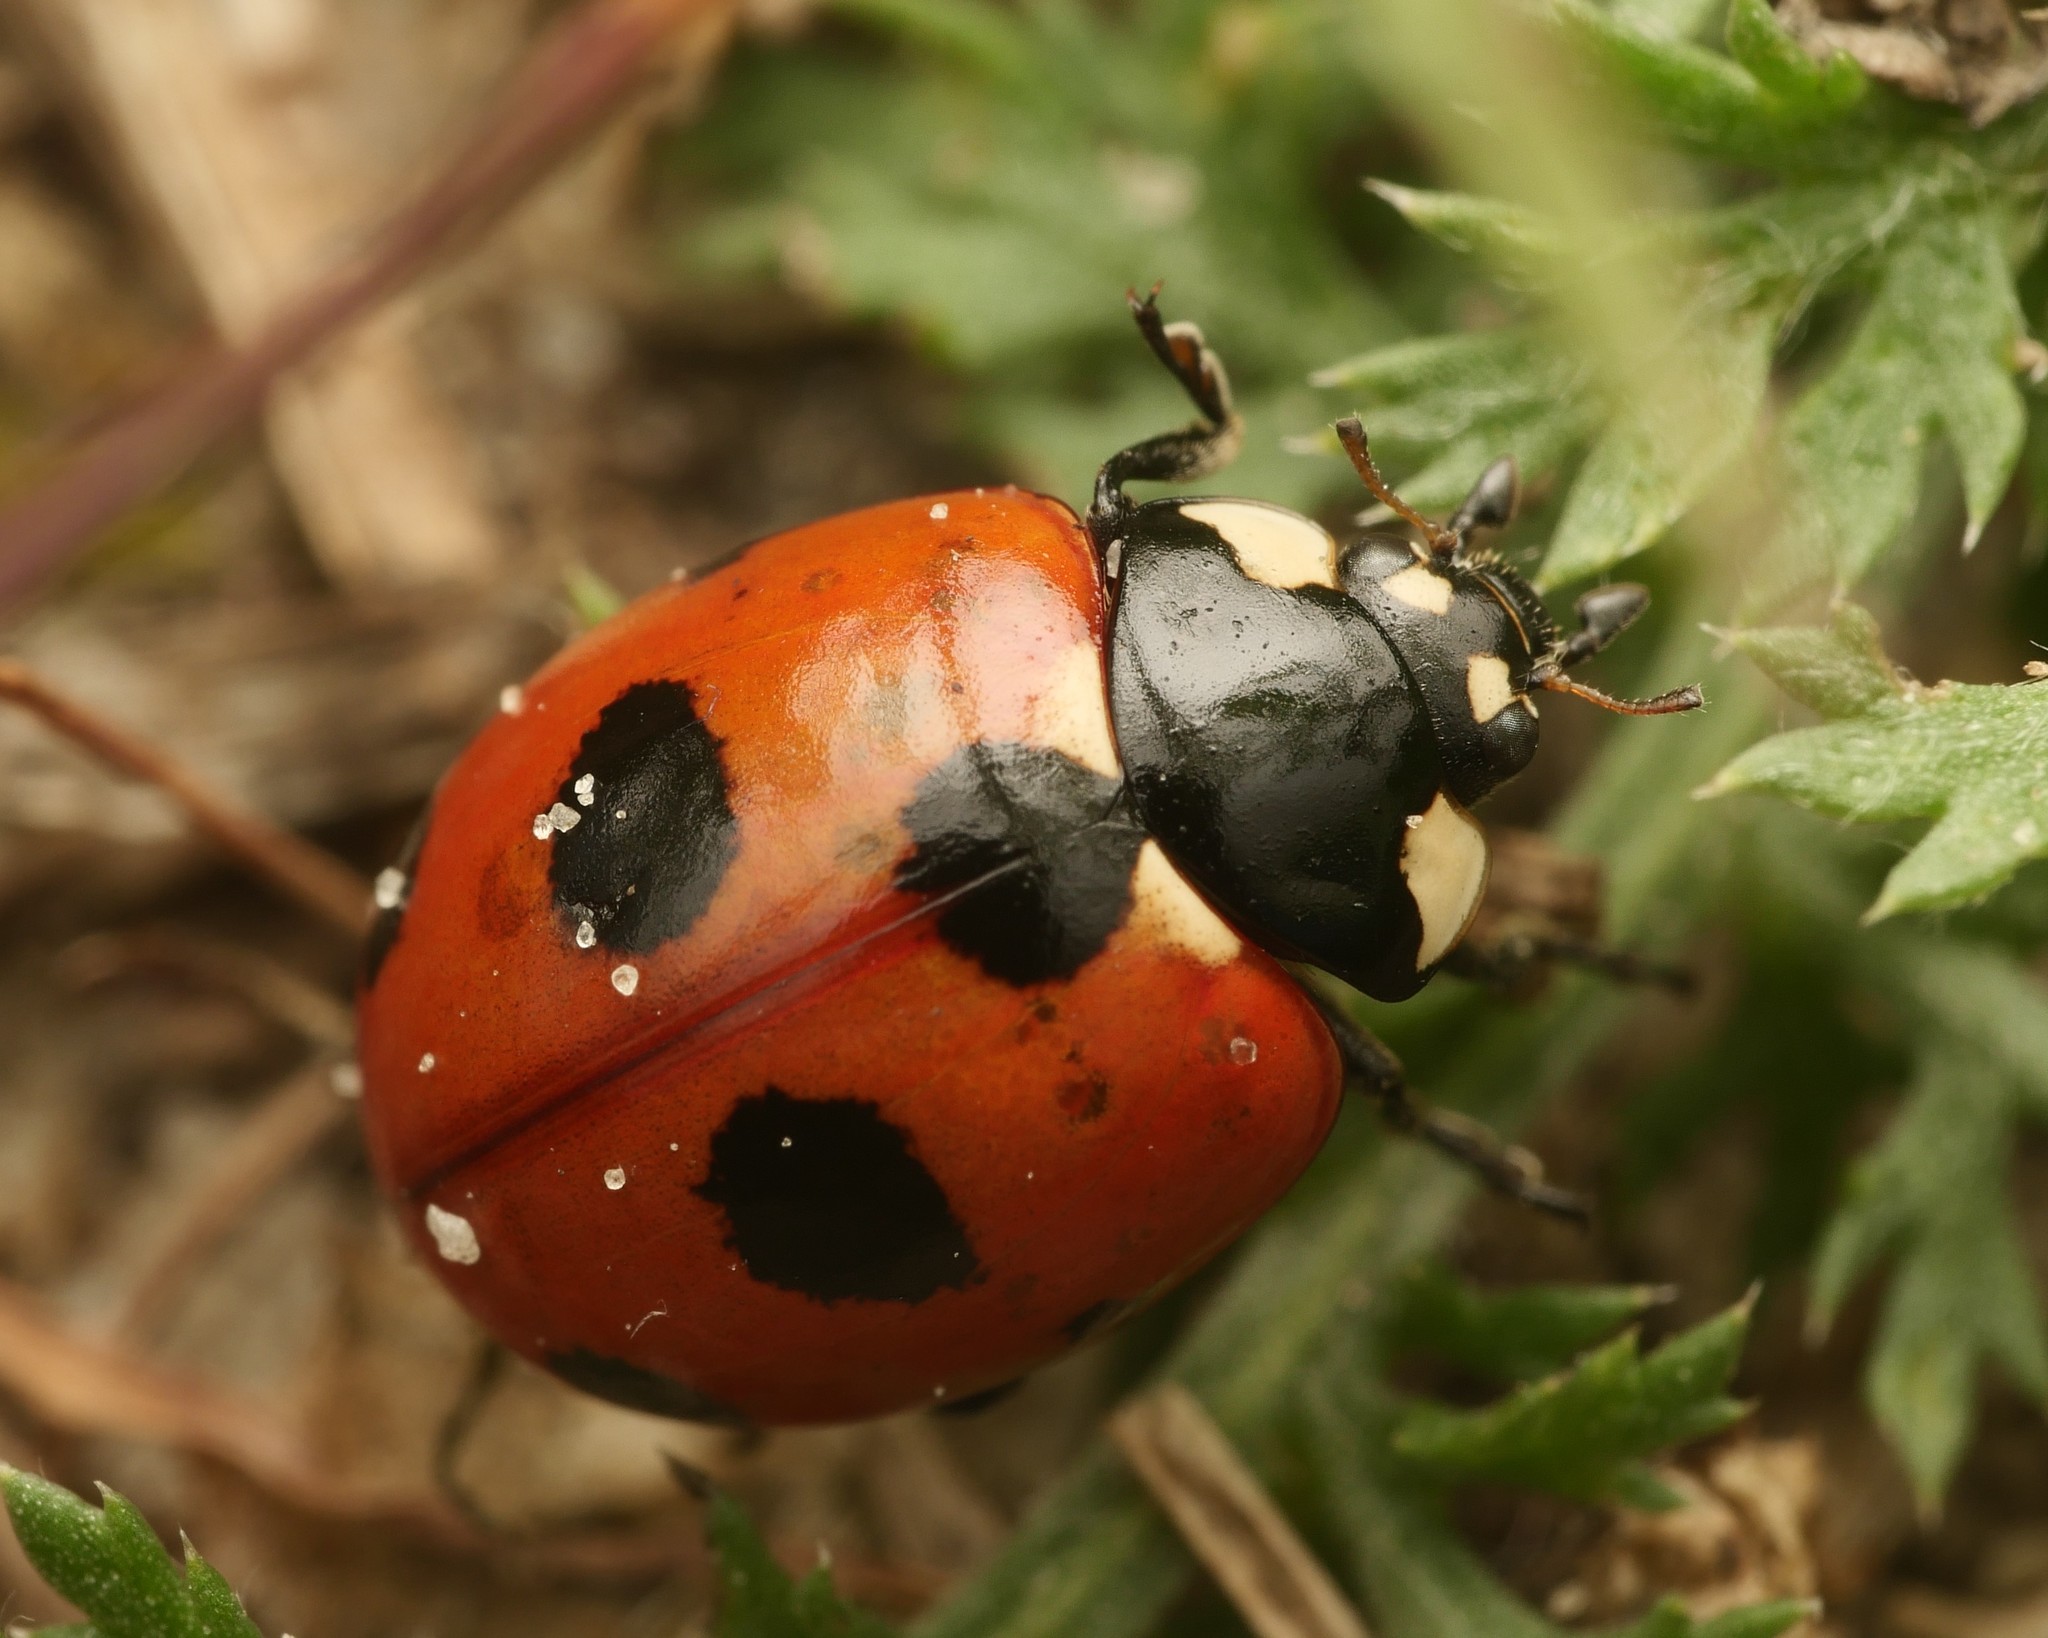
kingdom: Animalia
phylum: Arthropoda
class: Insecta
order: Coleoptera
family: Coccinellidae
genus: Coccinella
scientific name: Coccinella magnifica
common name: Scarce 7-spot ladybird
